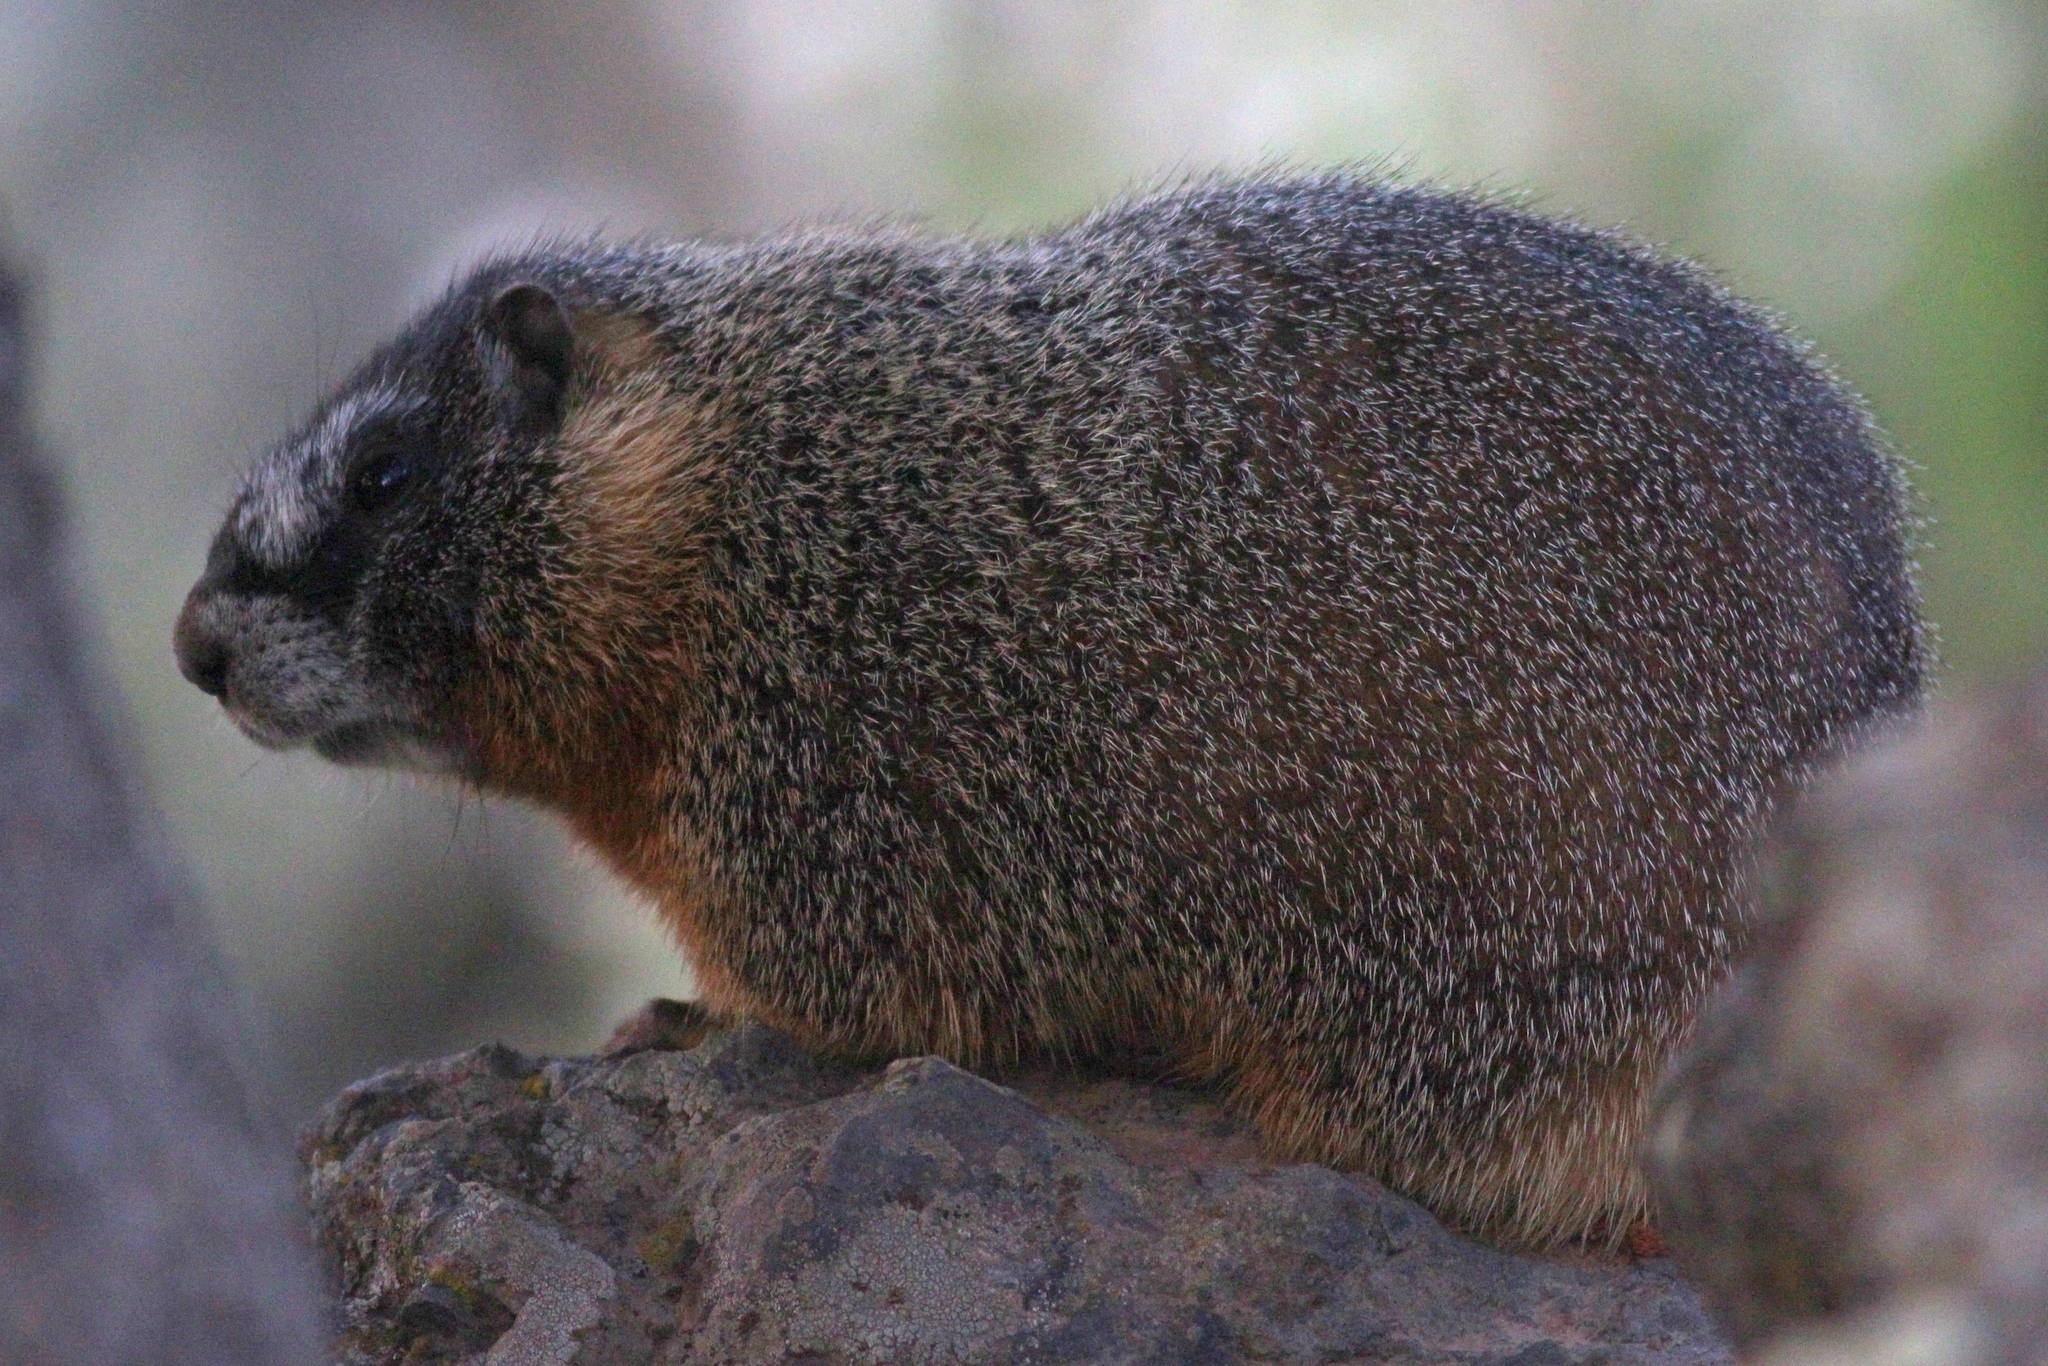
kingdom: Animalia
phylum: Chordata
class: Mammalia
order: Rodentia
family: Sciuridae
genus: Marmota
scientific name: Marmota flaviventris
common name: Yellow-bellied marmot
